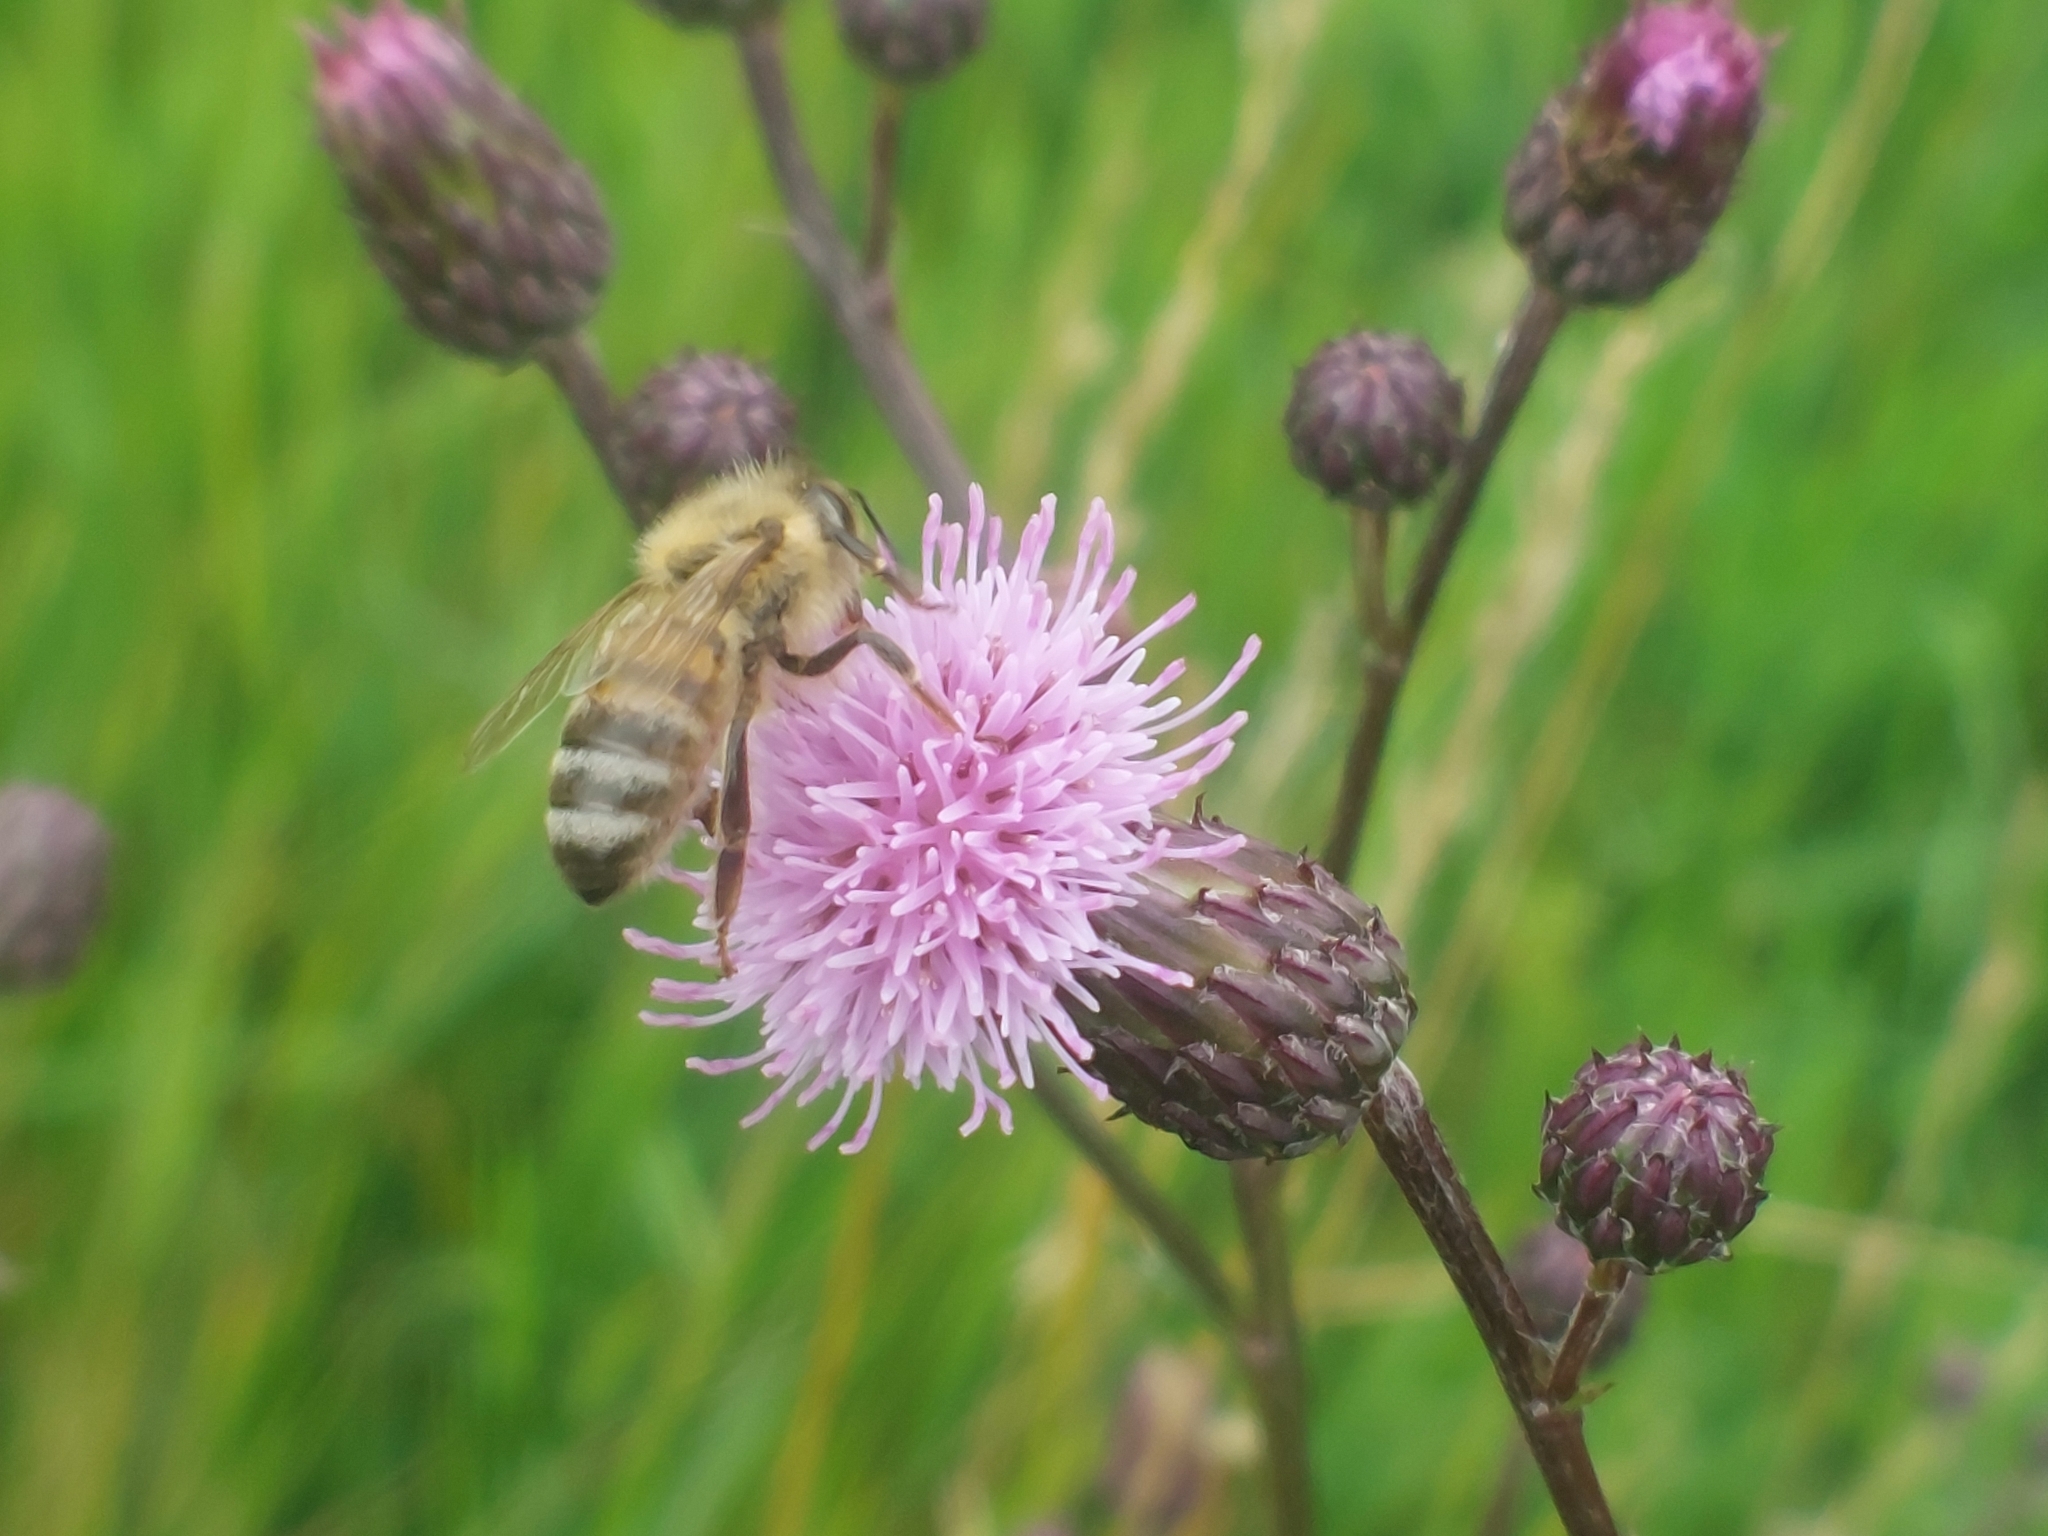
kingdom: Animalia
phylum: Arthropoda
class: Insecta
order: Hymenoptera
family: Apidae
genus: Apis
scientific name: Apis mellifera
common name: Honey bee
